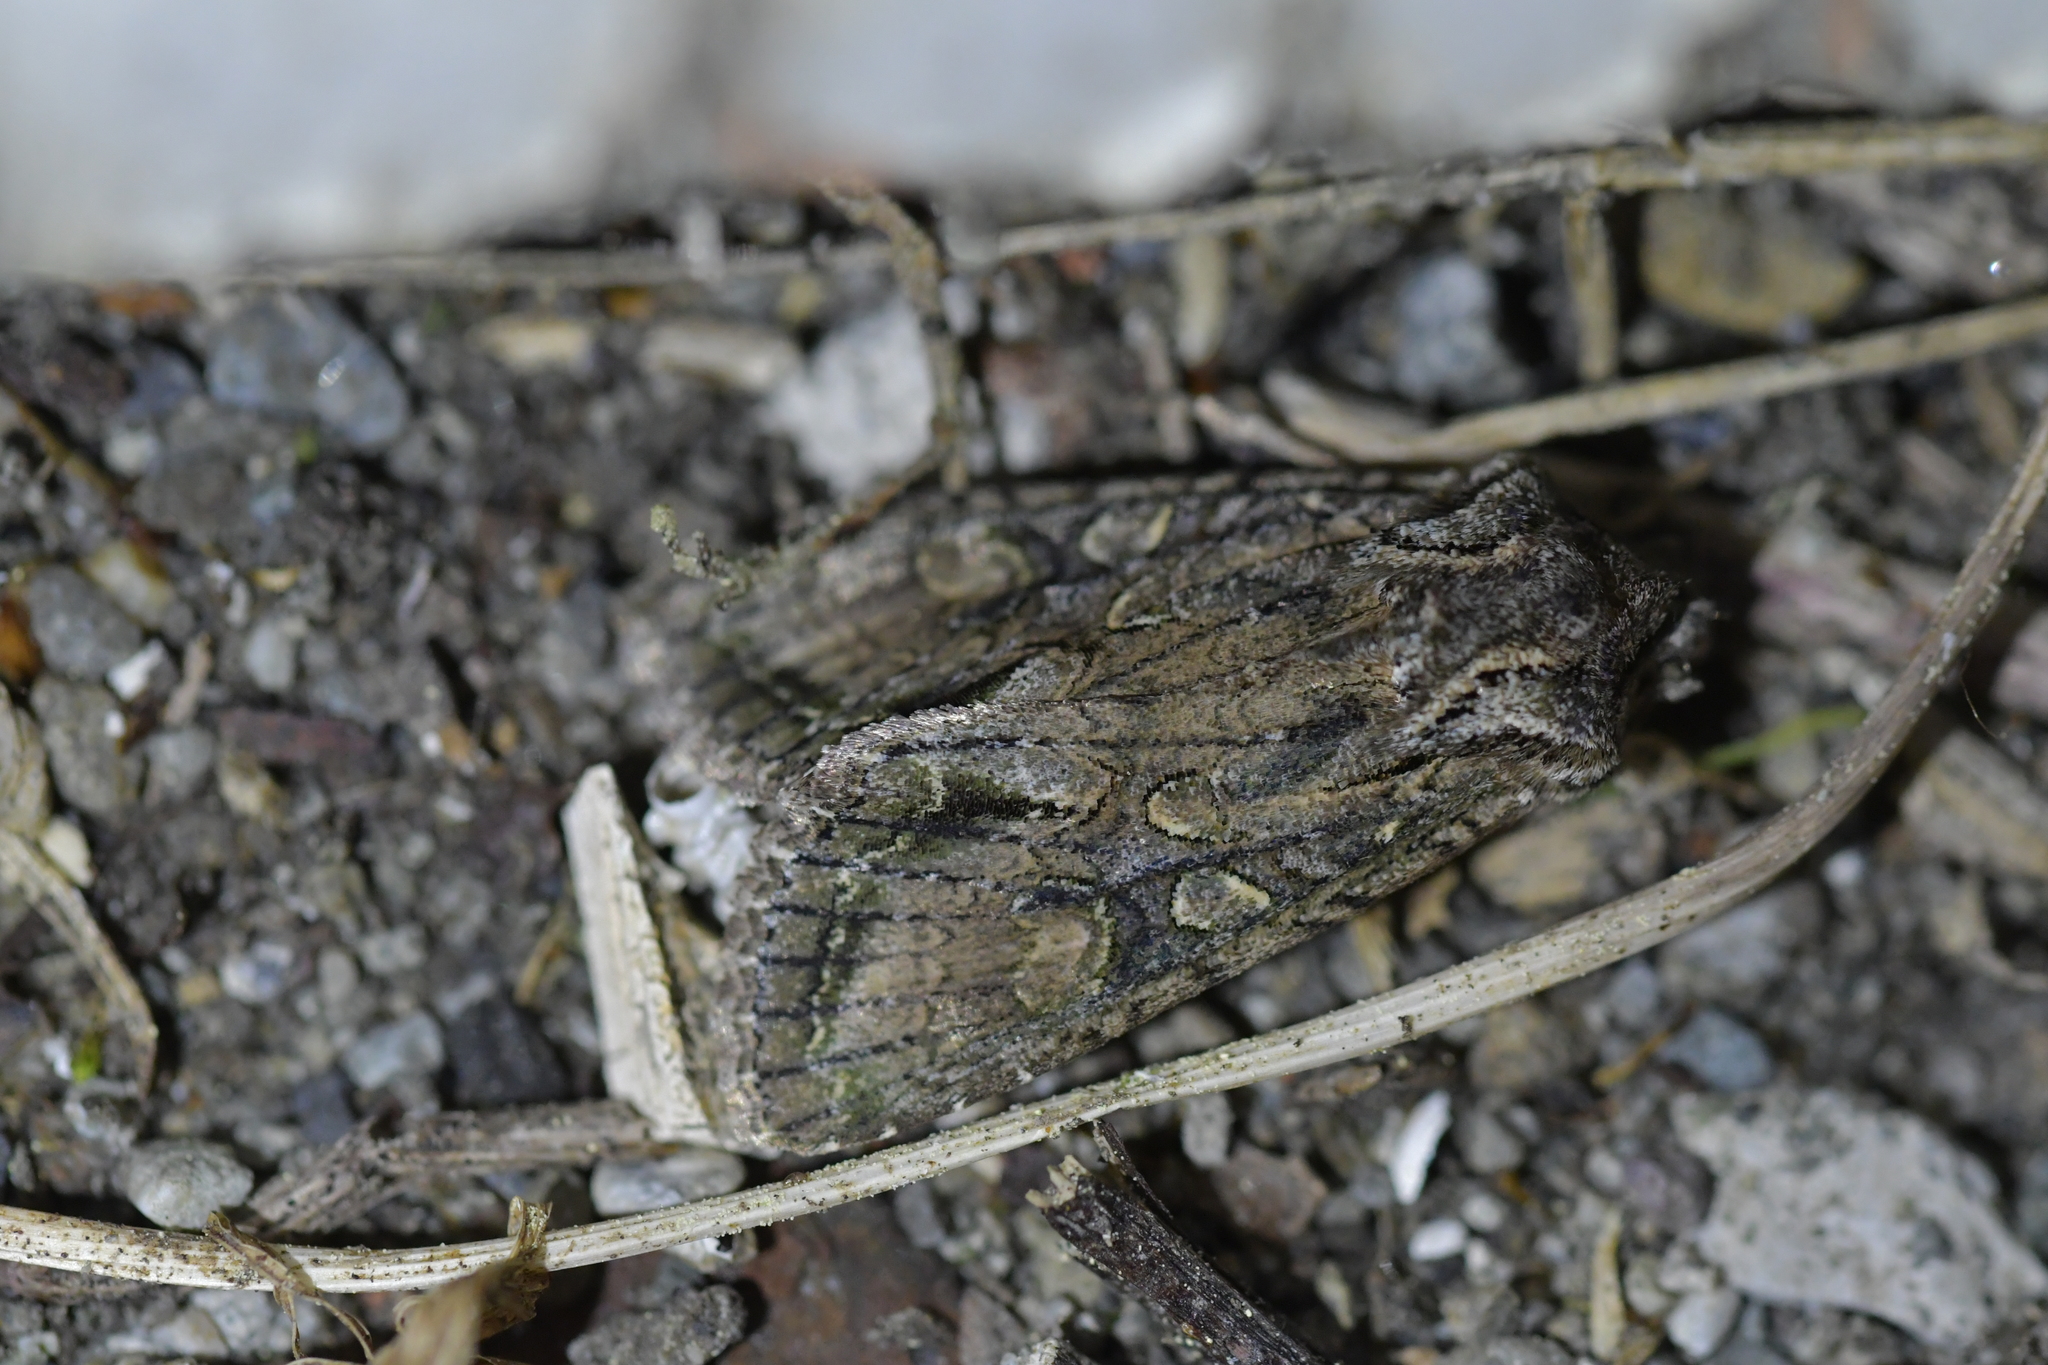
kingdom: Animalia
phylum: Arthropoda
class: Insecta
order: Lepidoptera
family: Noctuidae
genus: Ichneutica
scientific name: Ichneutica mutans
